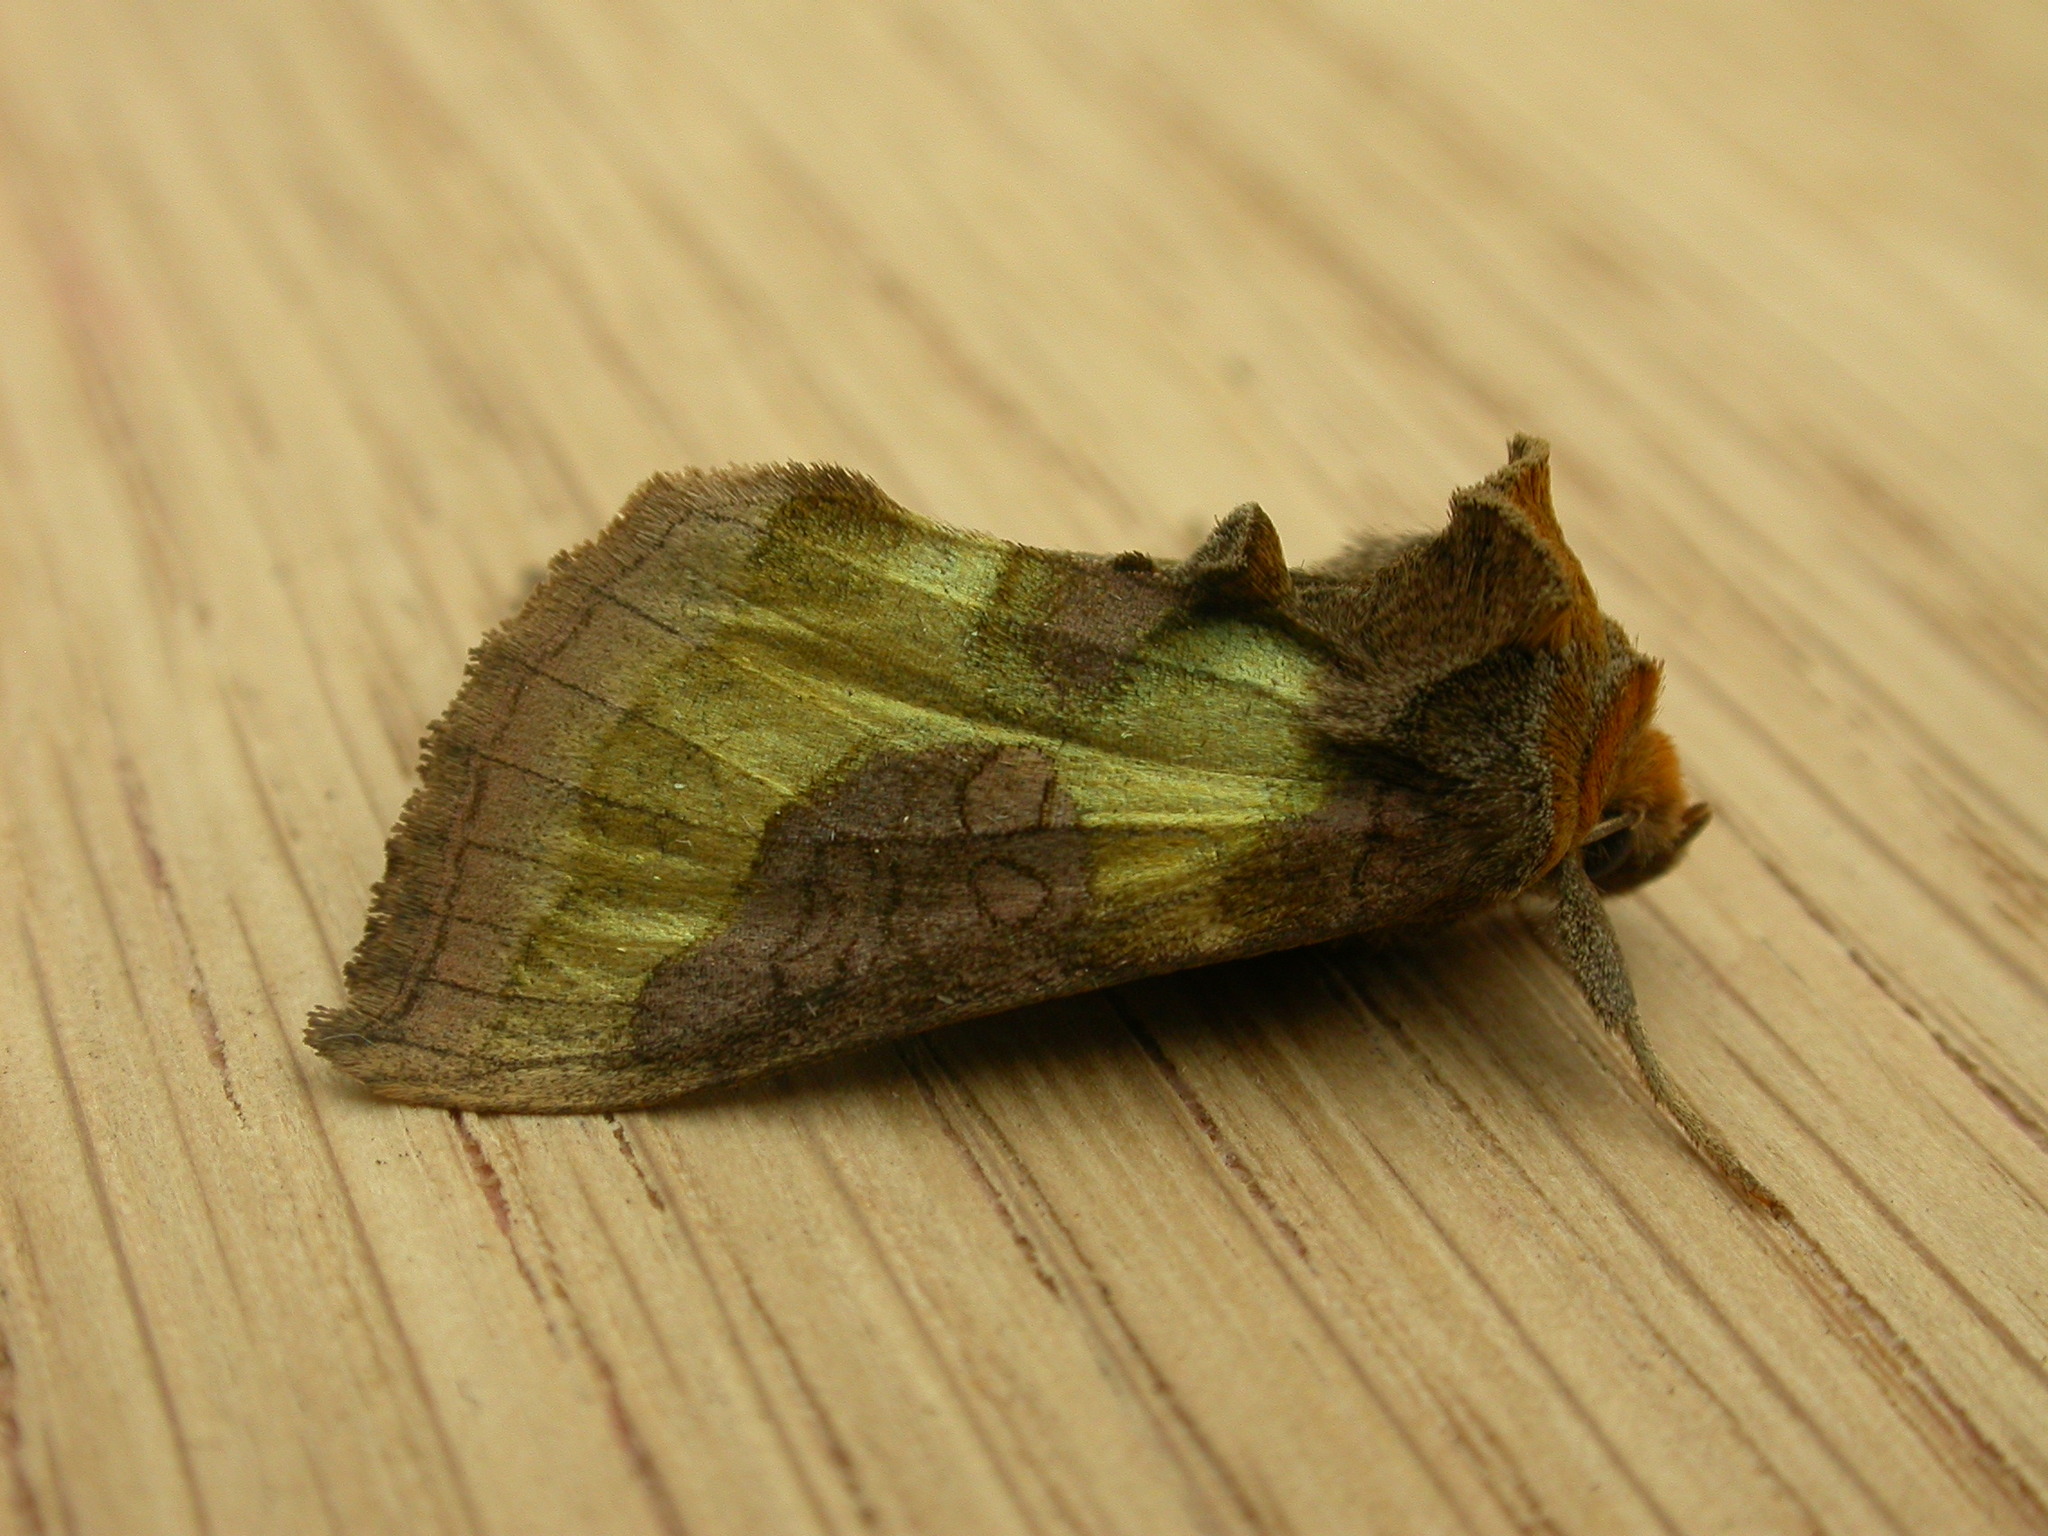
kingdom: Animalia
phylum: Arthropoda
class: Insecta
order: Lepidoptera
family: Noctuidae
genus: Diachrysia
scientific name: Diachrysia chrysitis
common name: Burnished brass
